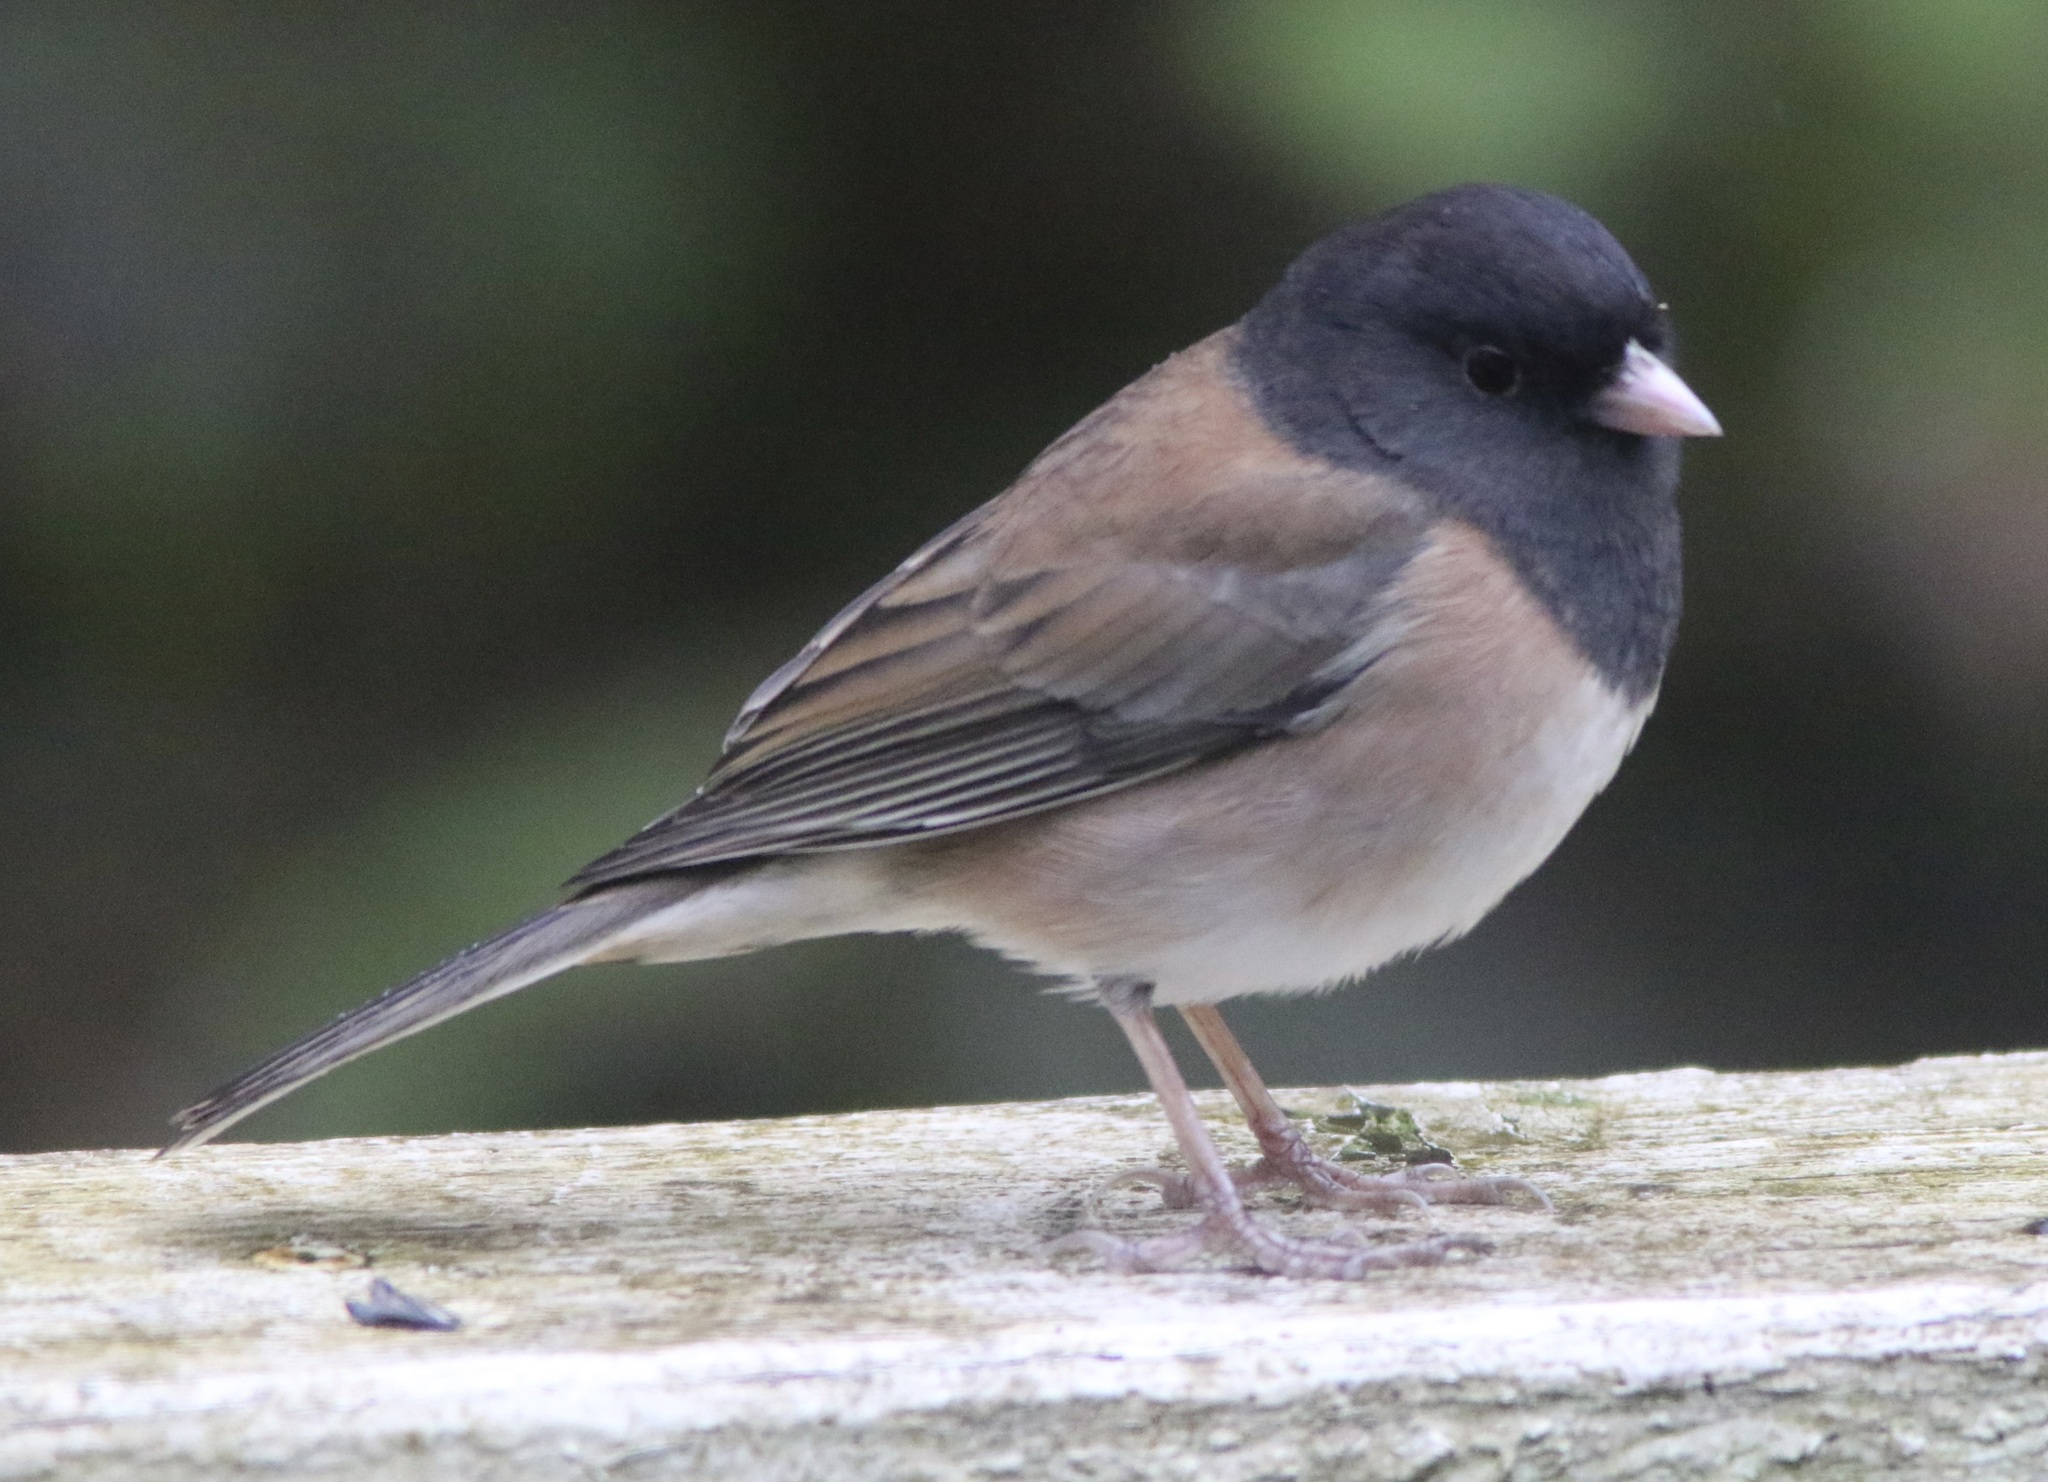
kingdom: Animalia
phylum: Chordata
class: Aves
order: Passeriformes
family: Passerellidae
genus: Junco
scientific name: Junco hyemalis
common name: Dark-eyed junco
